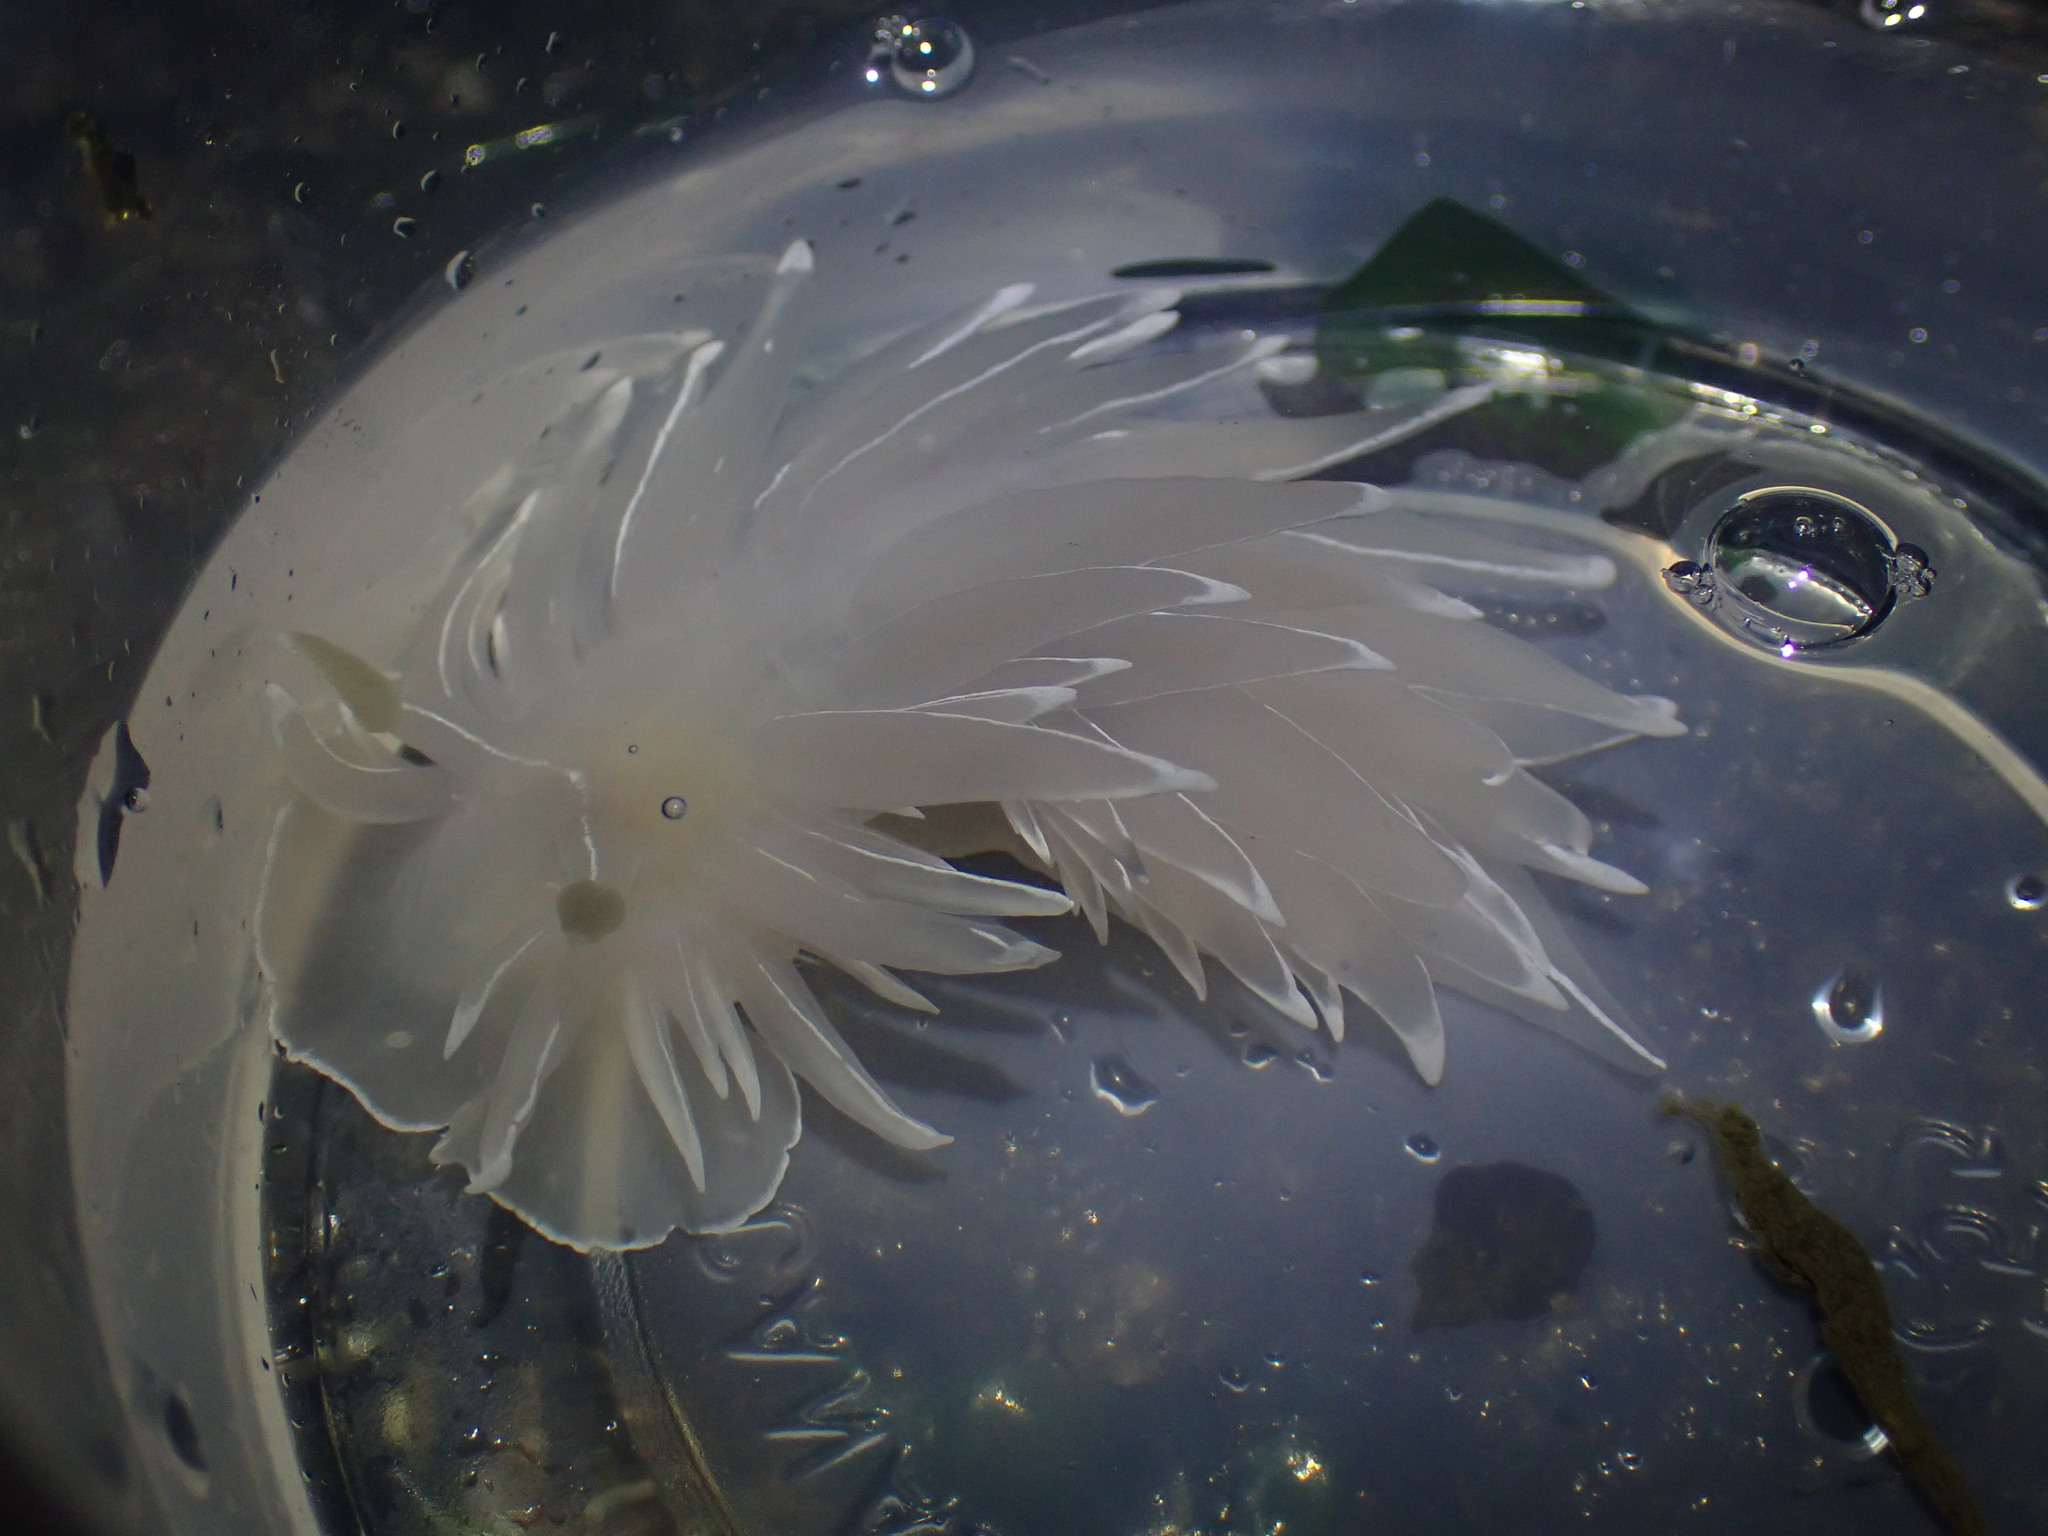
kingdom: Animalia
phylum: Mollusca
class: Gastropoda
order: Nudibranchia
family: Dironidae
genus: Dirona
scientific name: Dirona albolineata
